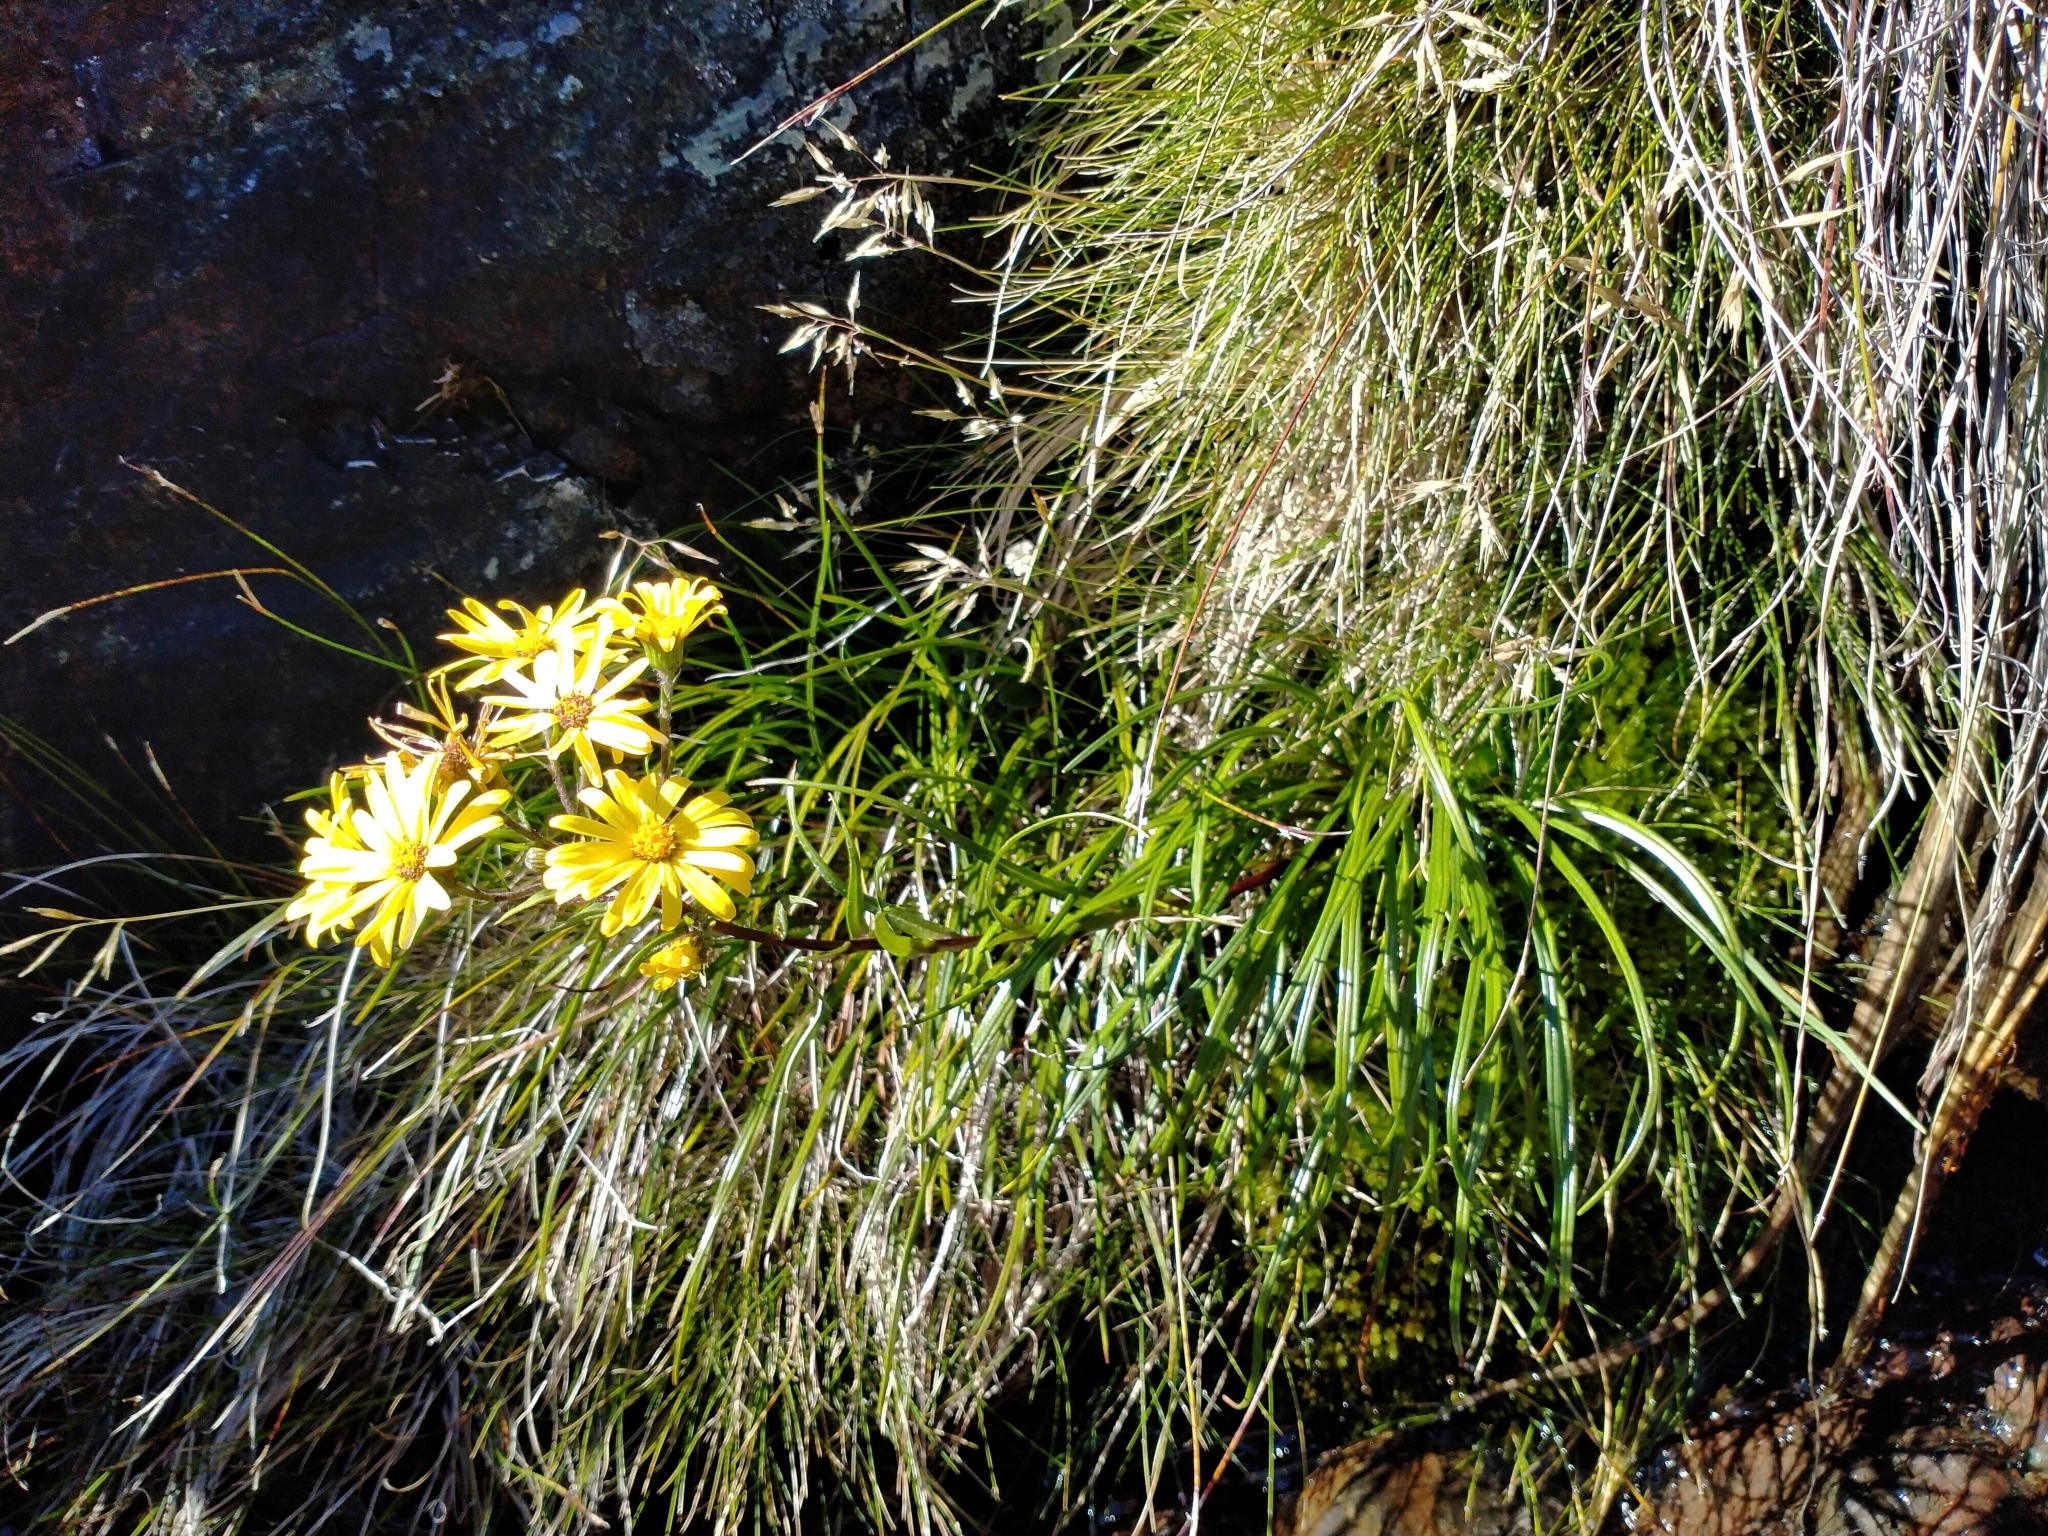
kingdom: Plantae
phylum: Tracheophyta
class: Magnoliopsida
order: Asterales
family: Asteraceae
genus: Dolichoglottis
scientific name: Dolichoglottis lyallii
